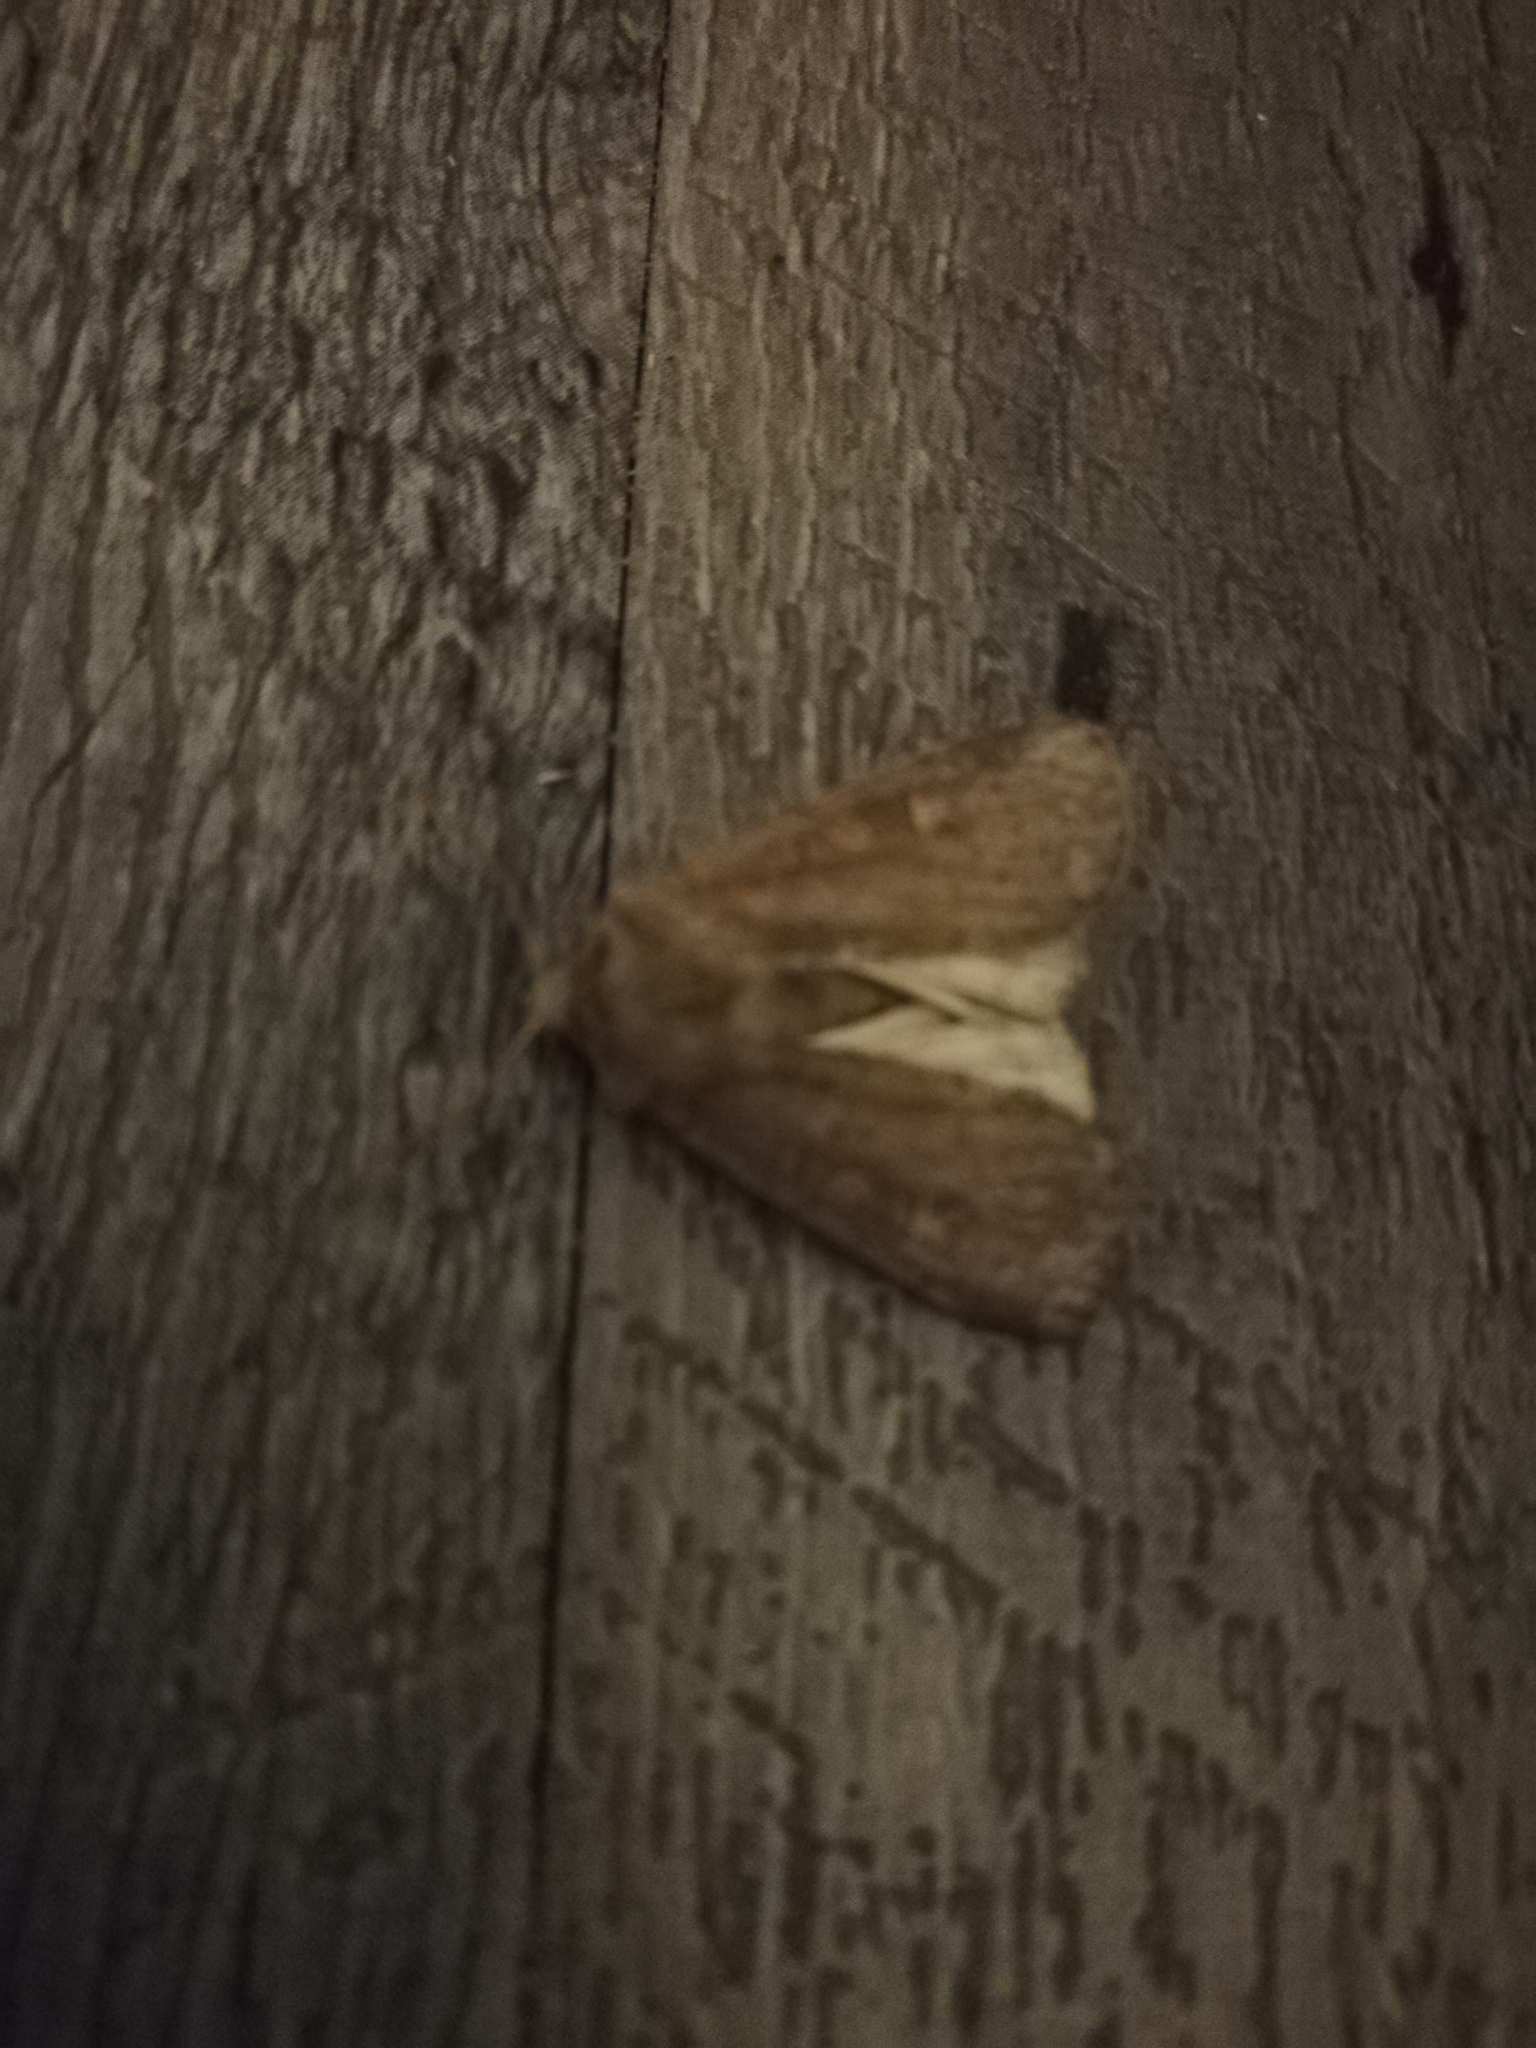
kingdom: Animalia
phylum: Arthropoda
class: Insecta
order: Lepidoptera
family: Noctuidae
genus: Xestia
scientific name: Xestia xanthographa
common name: Square-spot rustic
